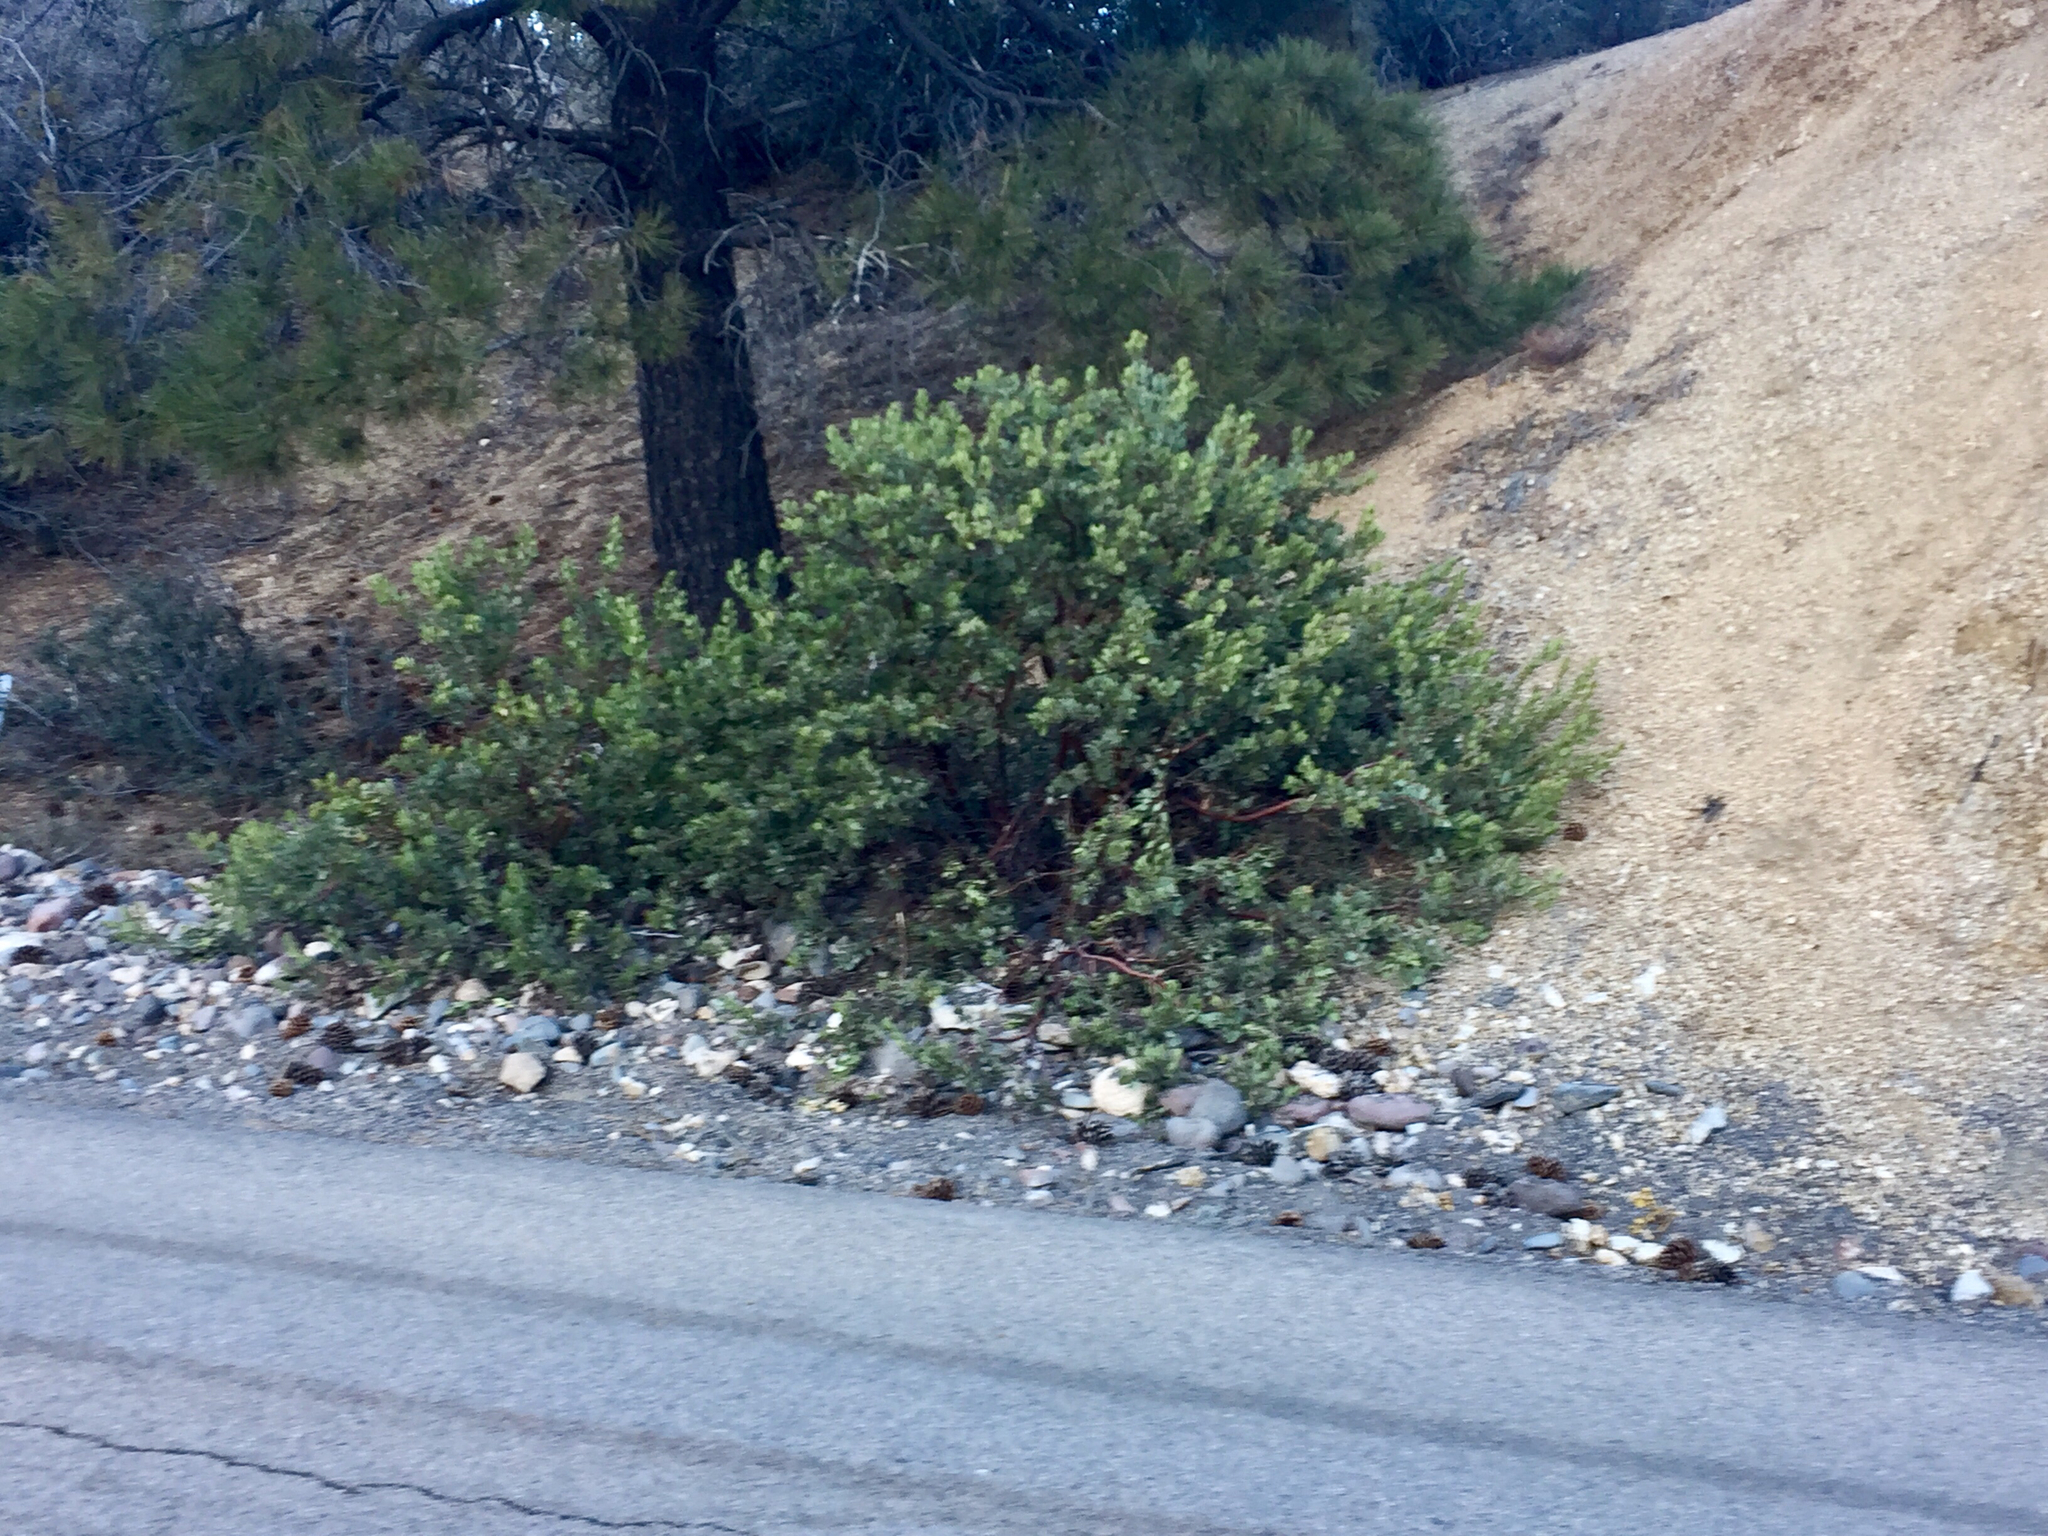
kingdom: Plantae
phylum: Tracheophyta
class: Magnoliopsida
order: Ericales
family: Ericaceae
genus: Arctostaphylos
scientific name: Arctostaphylos pungens
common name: Mexican manzanita
